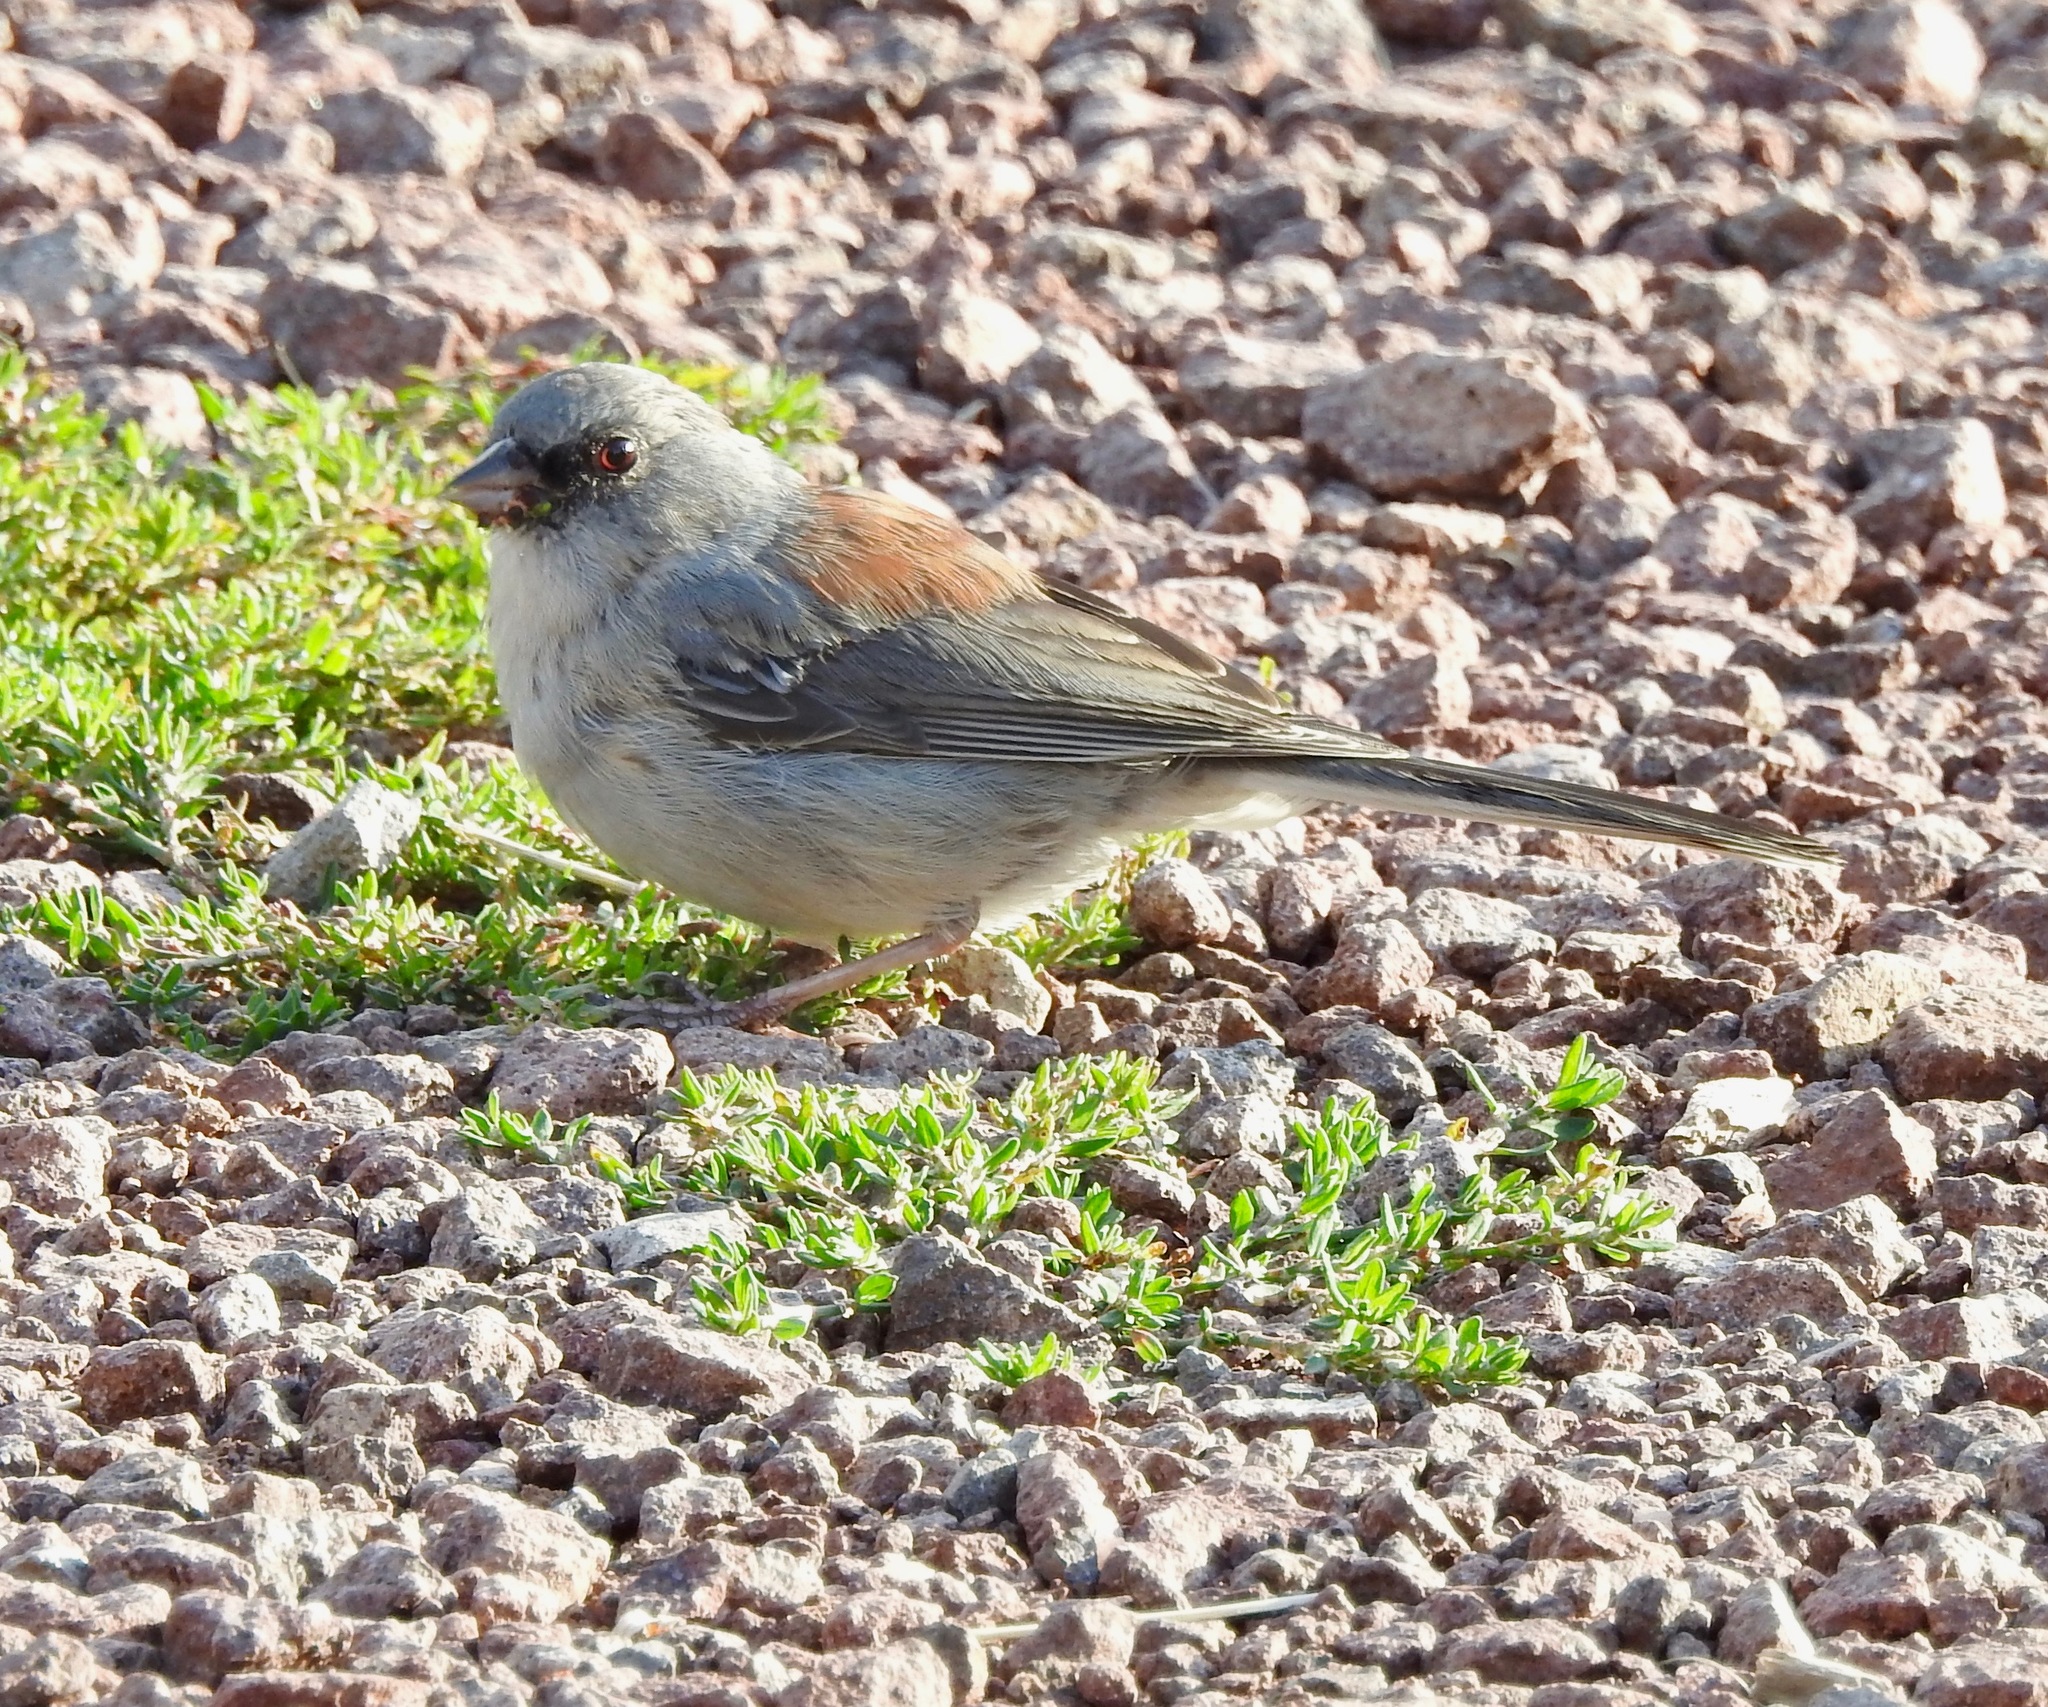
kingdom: Animalia
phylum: Chordata
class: Aves
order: Passeriformes
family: Passerellidae
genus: Junco
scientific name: Junco hyemalis
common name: Dark-eyed junco
